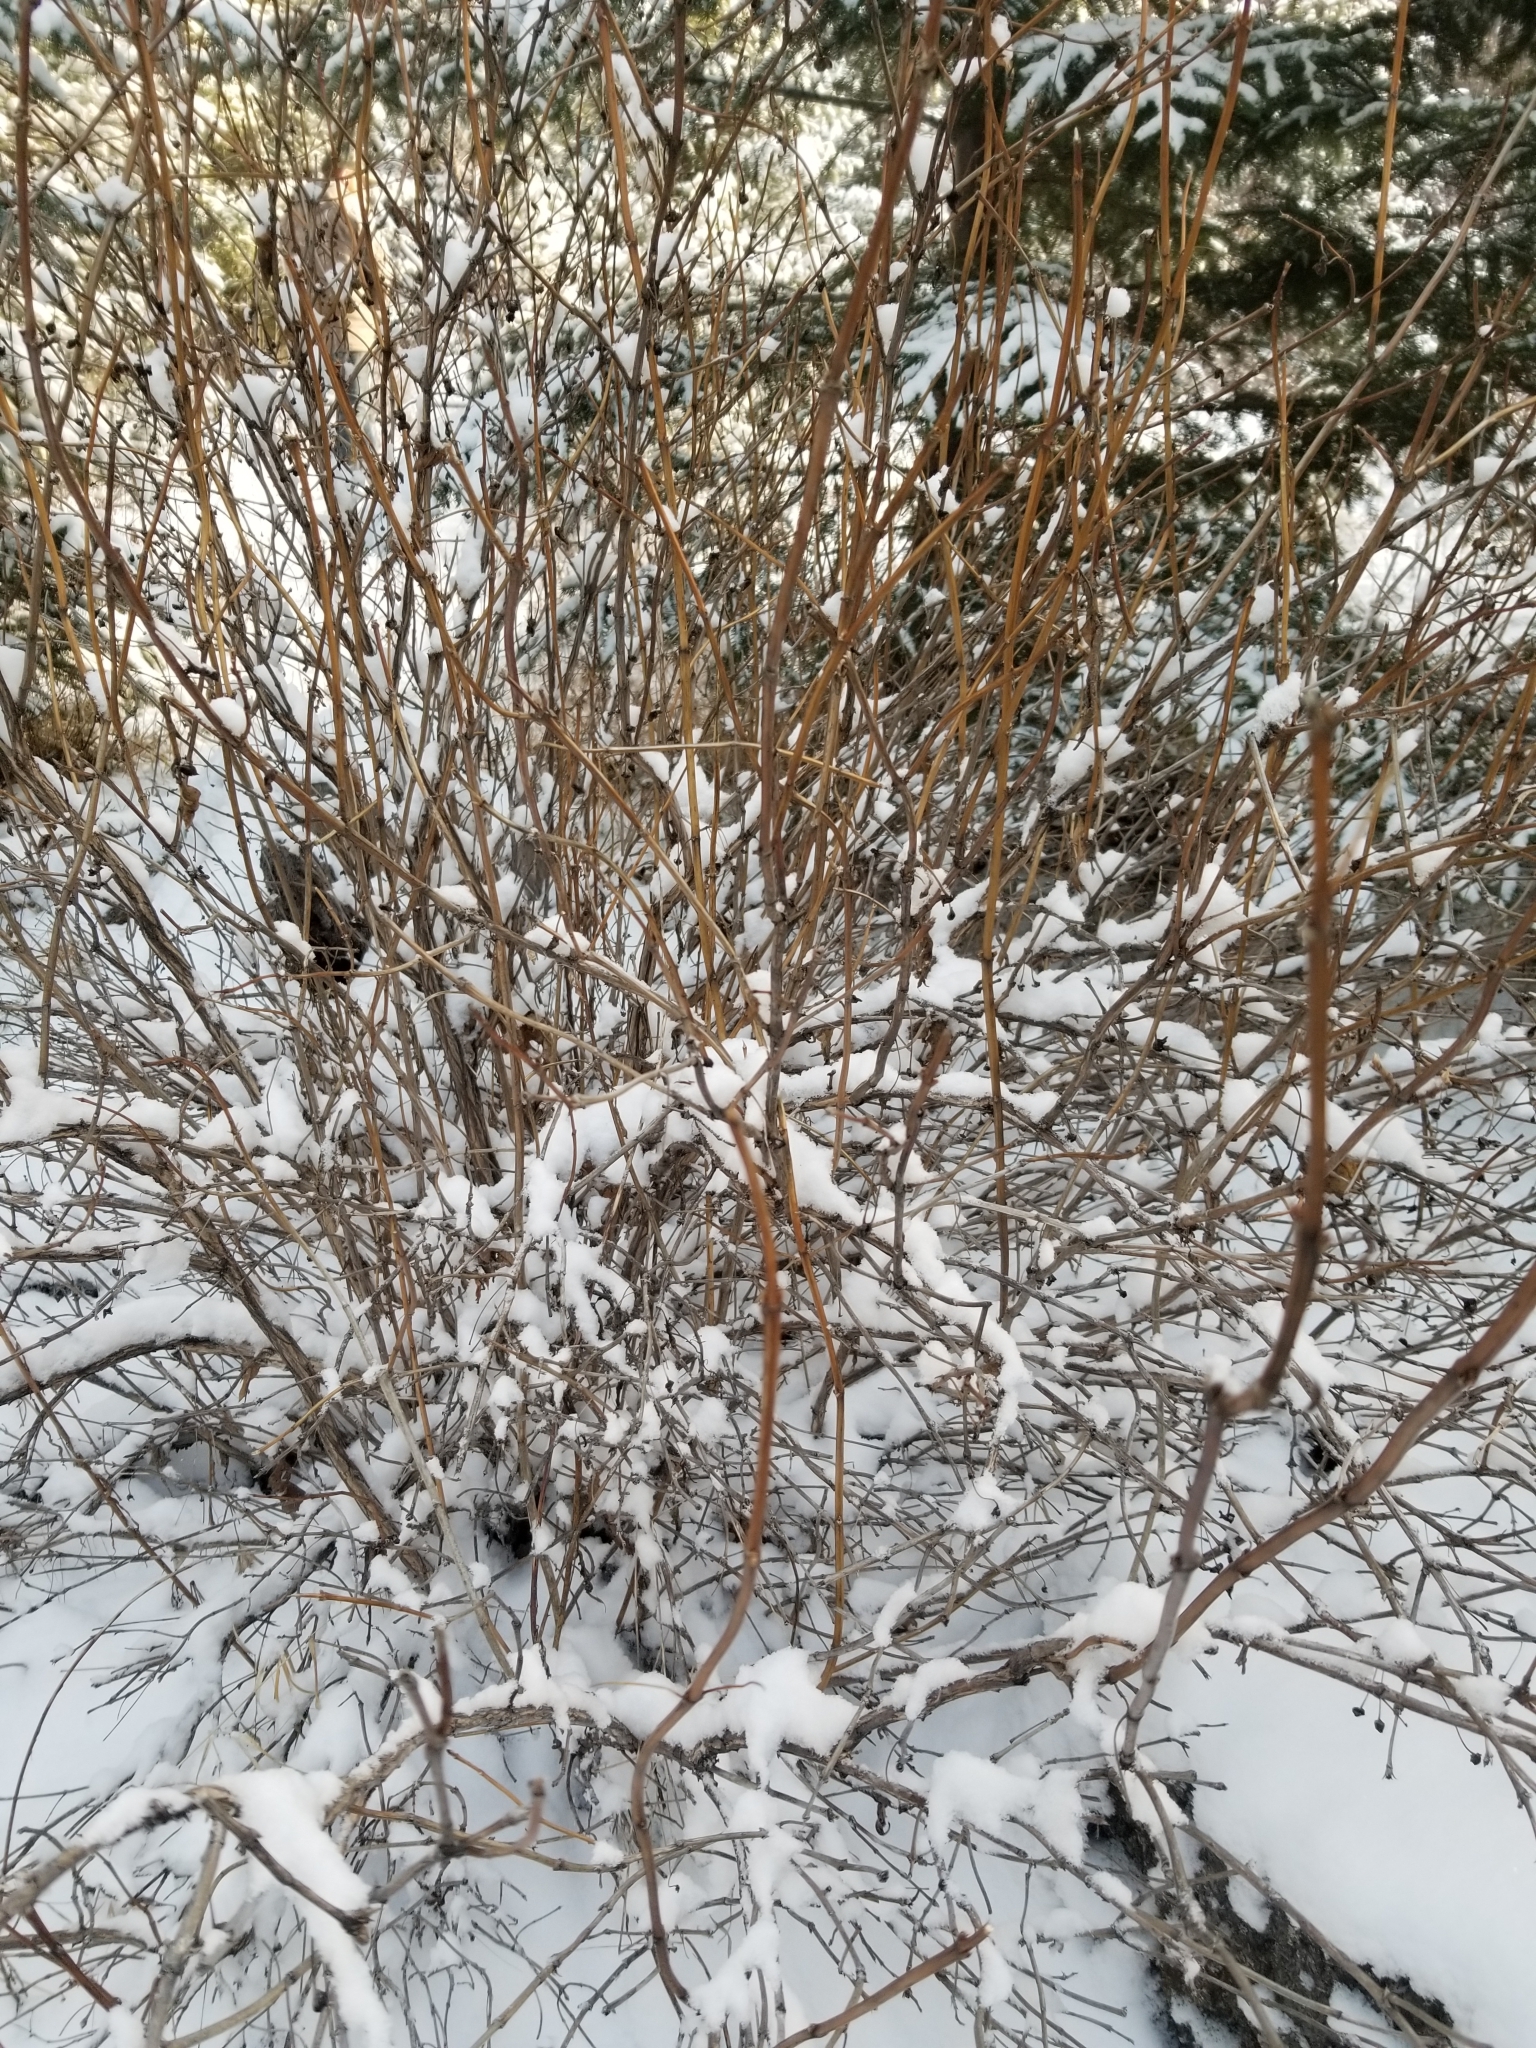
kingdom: Plantae
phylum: Tracheophyta
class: Magnoliopsida
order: Dipsacales
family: Caprifoliaceae
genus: Lonicera
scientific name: Lonicera involucrata
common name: Californian honeysuckle
